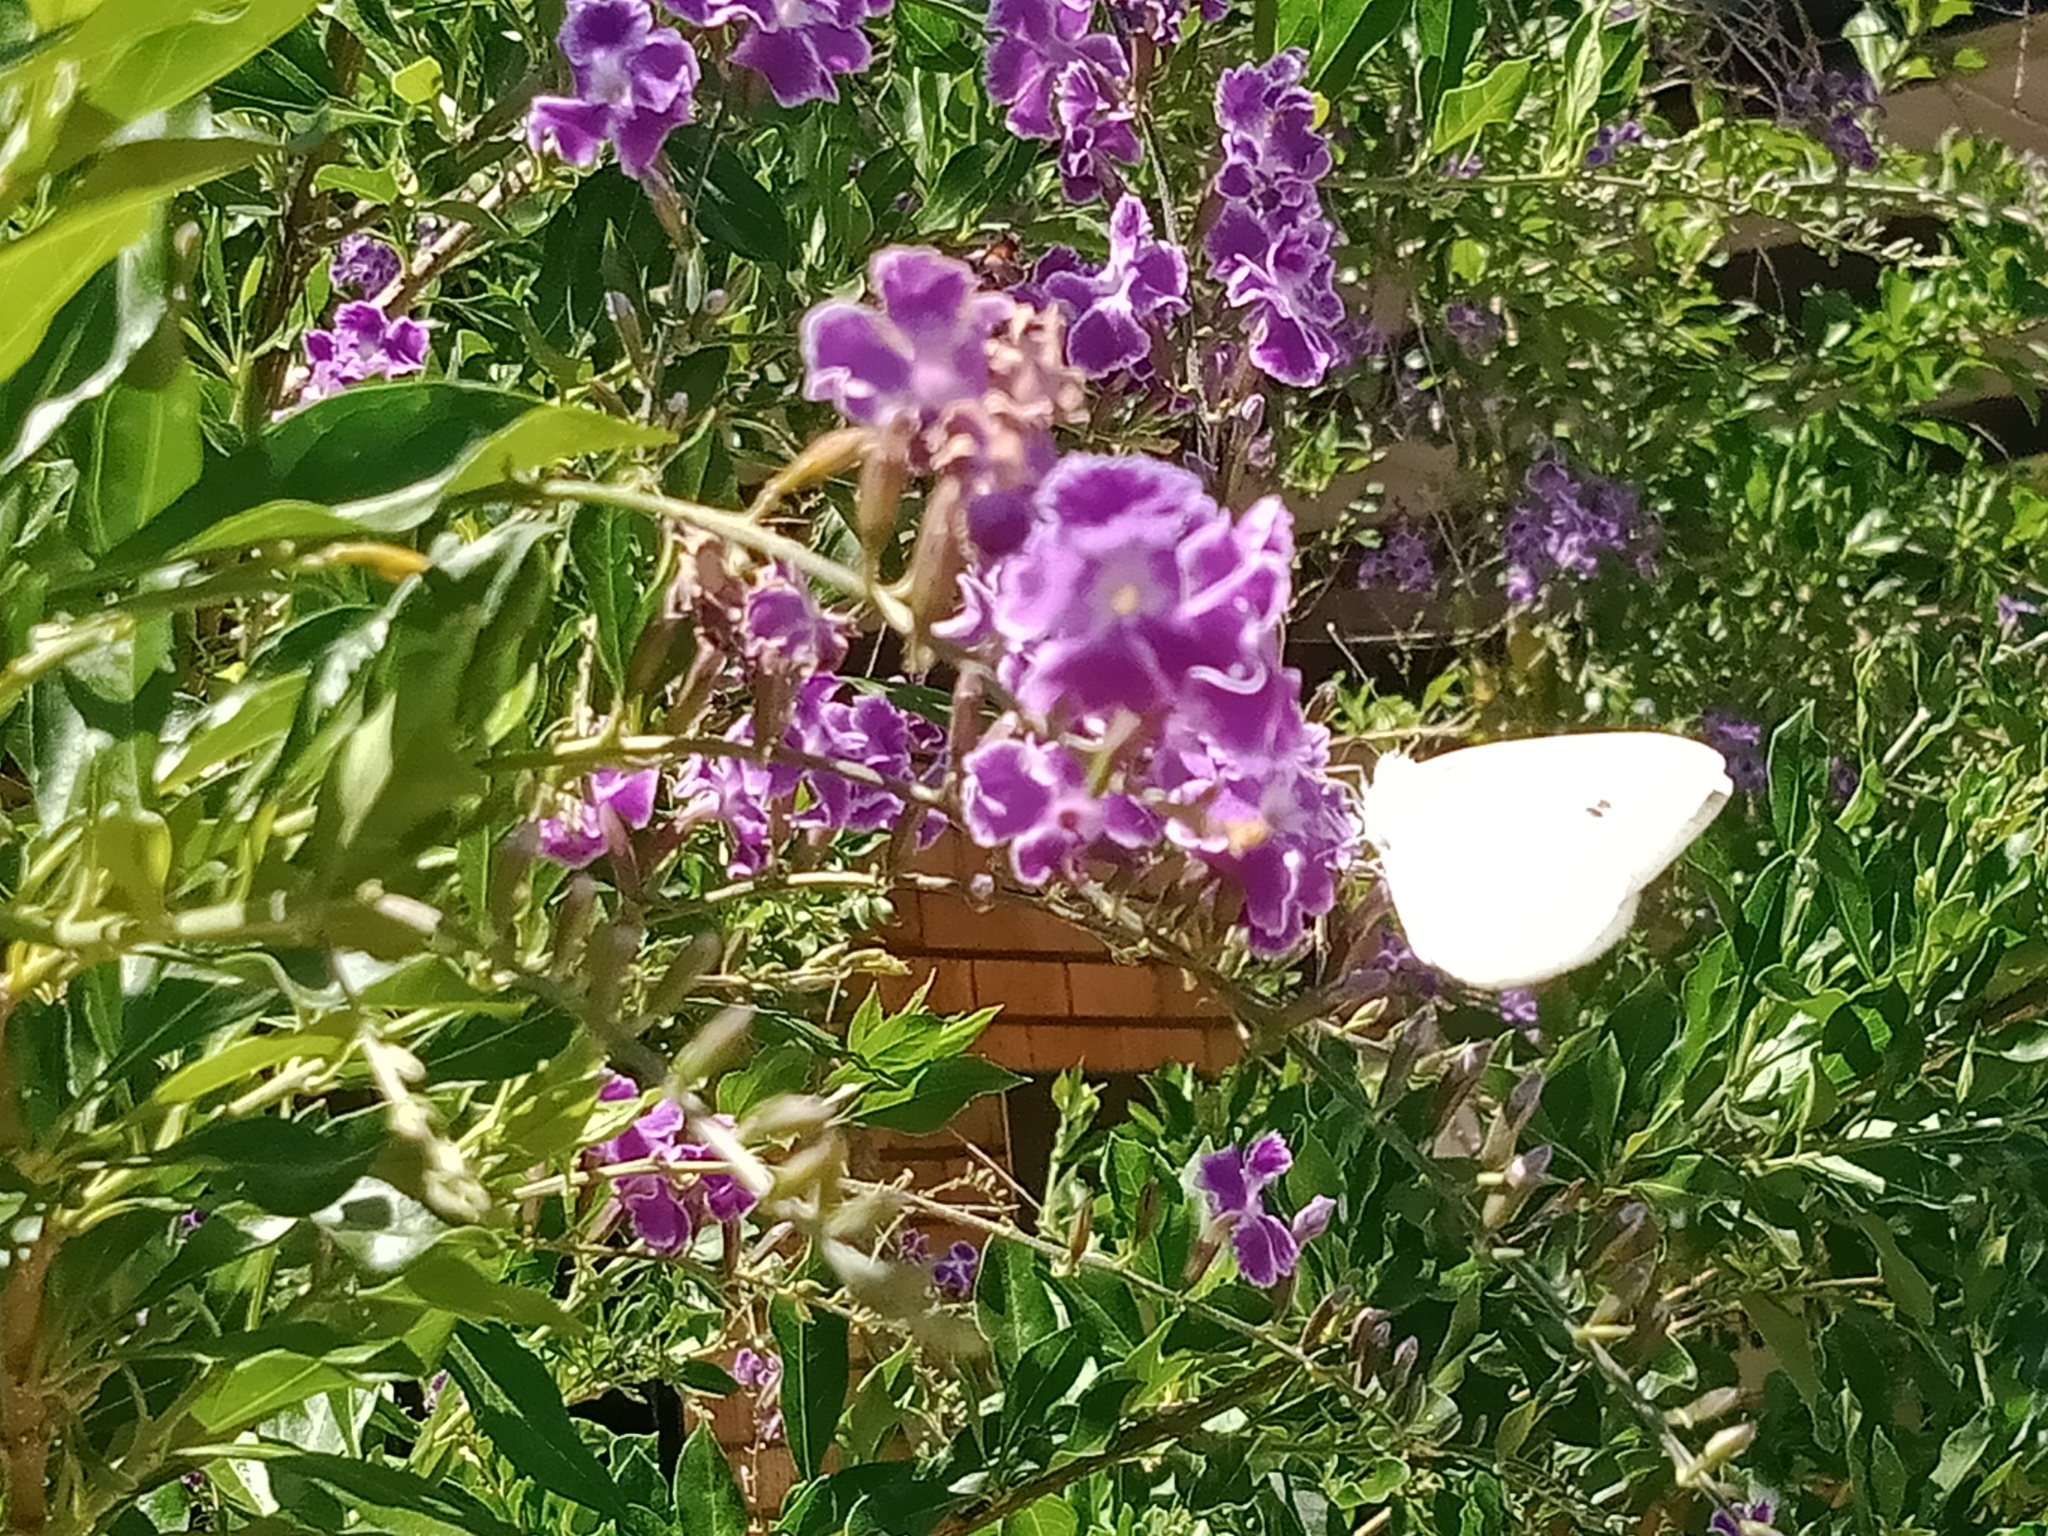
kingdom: Animalia
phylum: Arthropoda
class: Insecta
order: Lepidoptera
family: Pieridae
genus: Pieris
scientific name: Pieris rapae
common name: Small white
